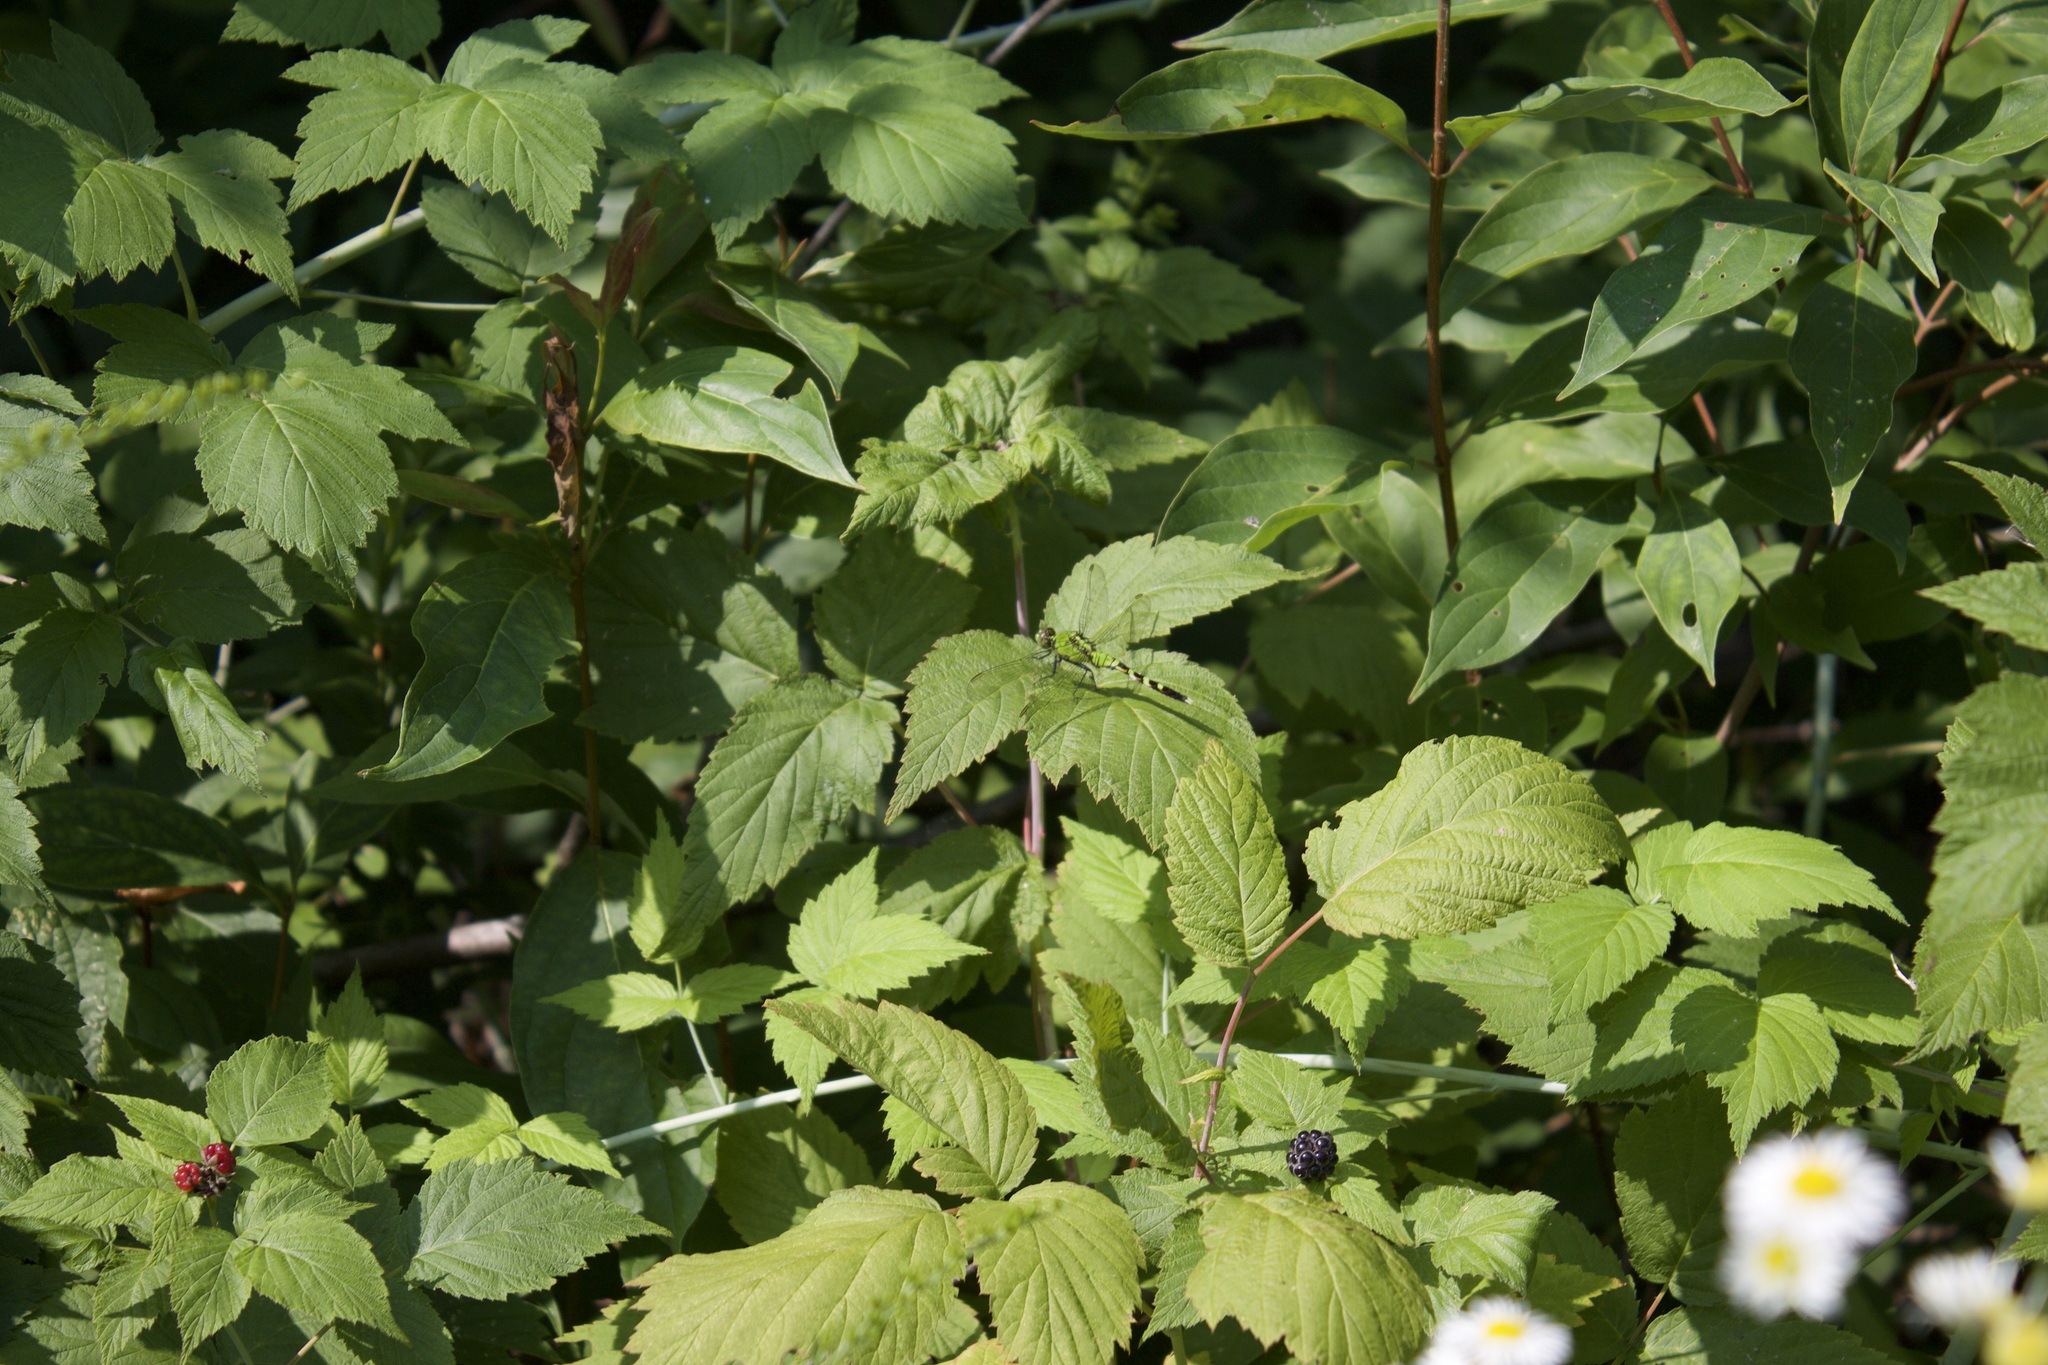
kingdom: Animalia
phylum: Arthropoda
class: Insecta
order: Odonata
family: Libellulidae
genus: Erythemis
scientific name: Erythemis simplicicollis
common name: Eastern pondhawk
